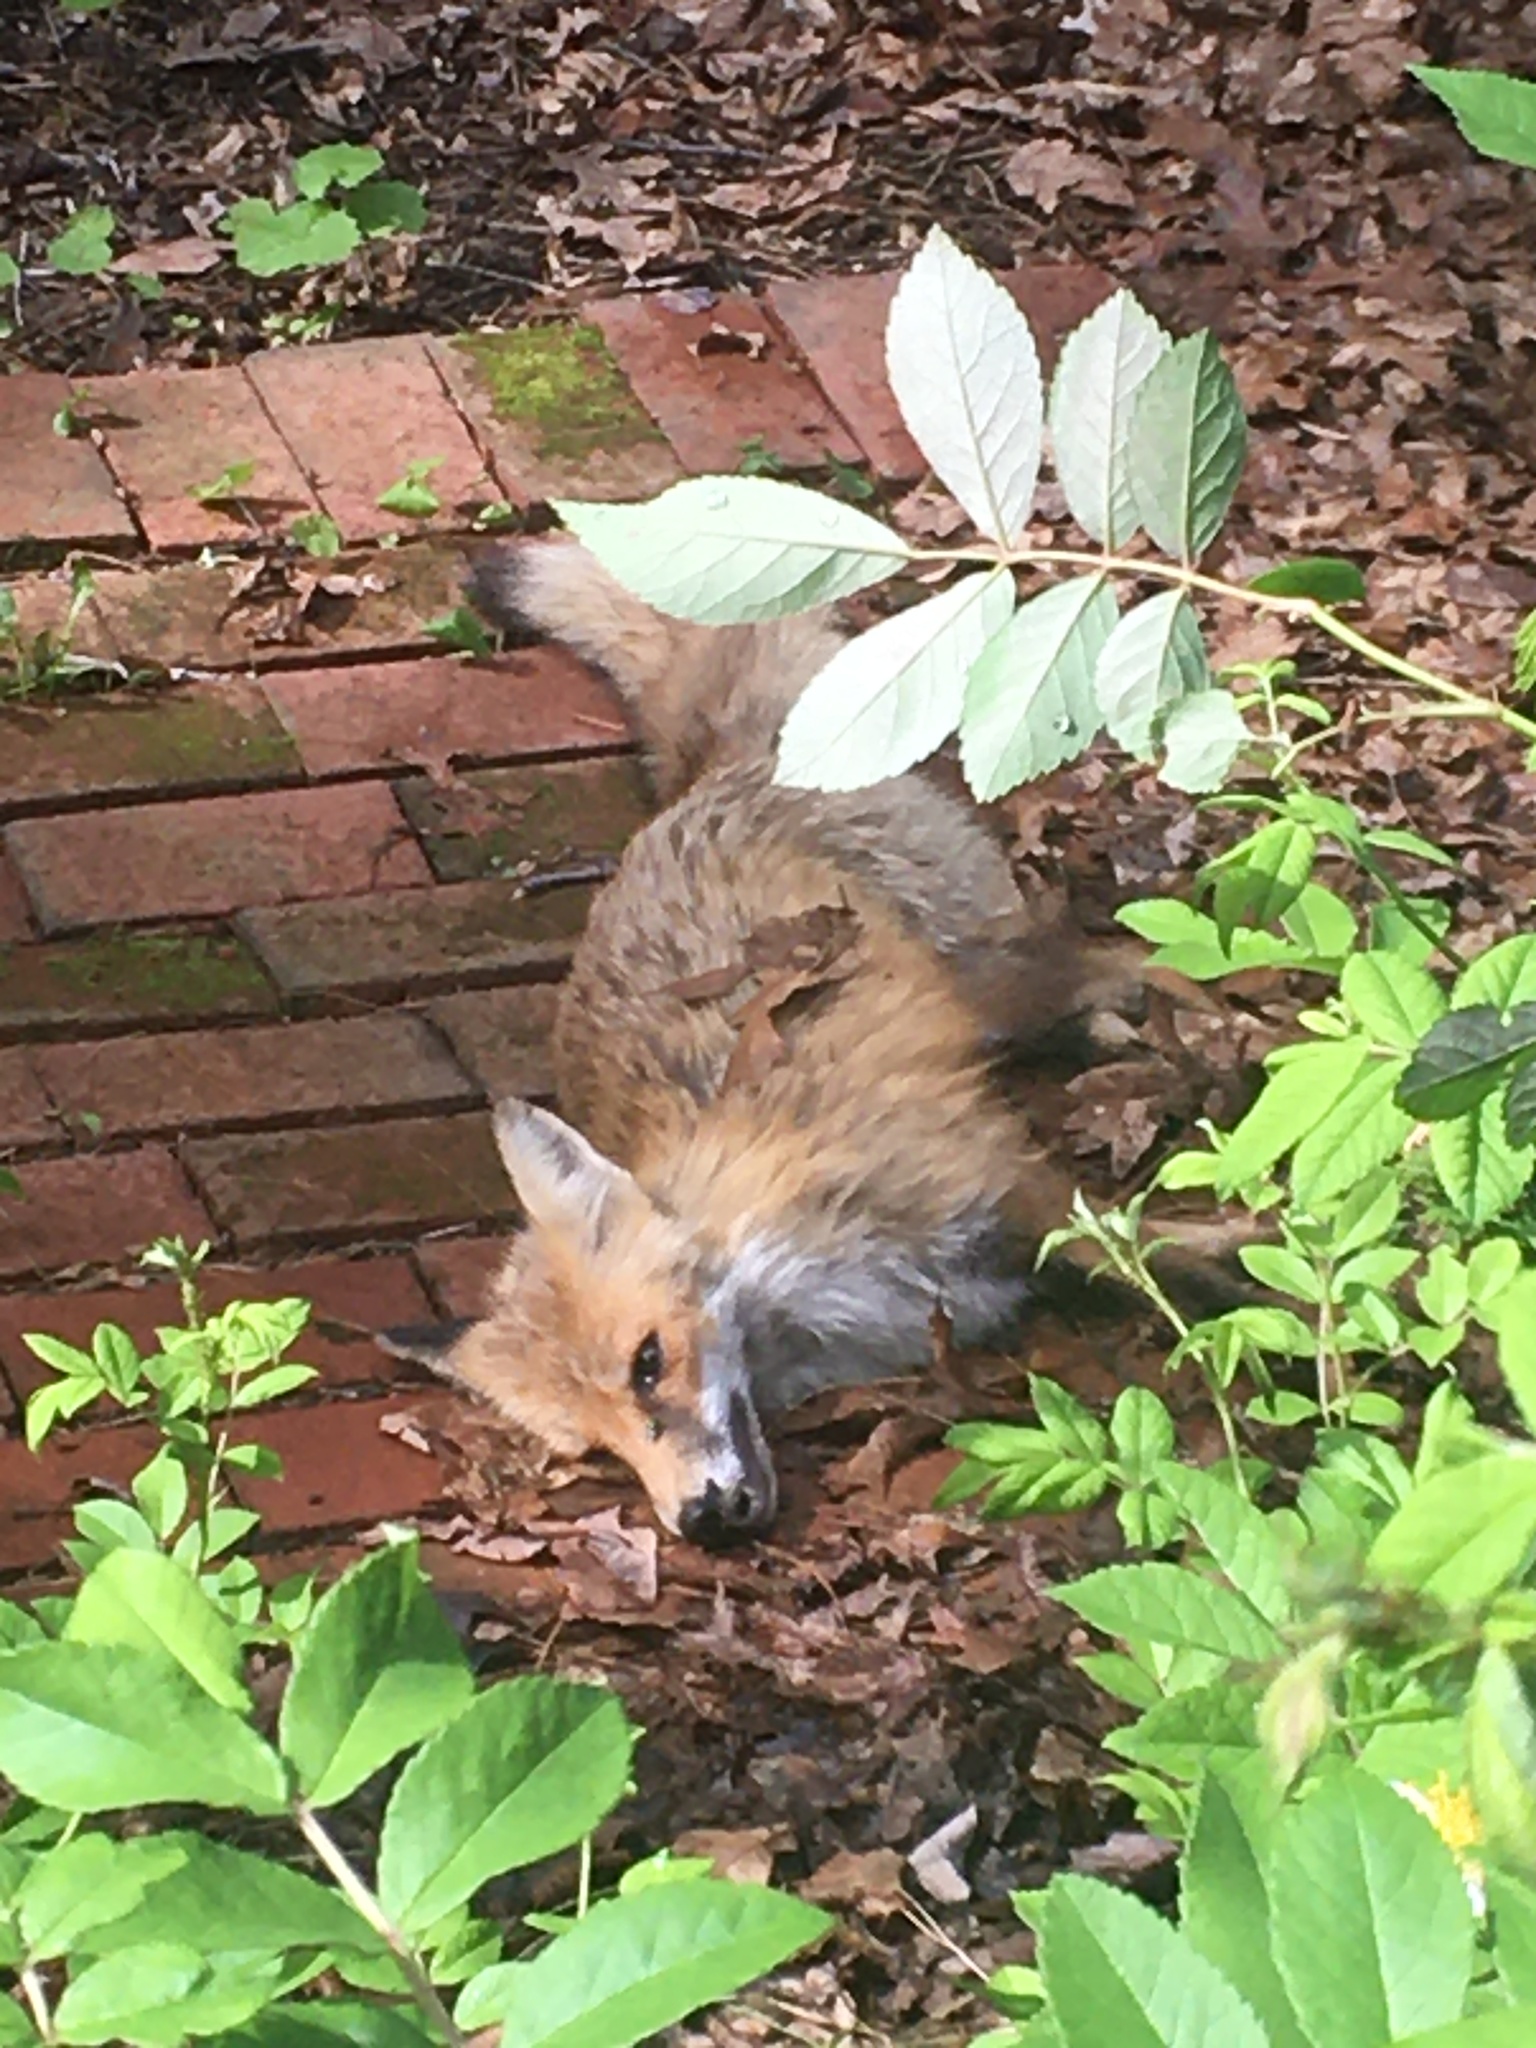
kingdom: Animalia
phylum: Chordata
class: Mammalia
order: Carnivora
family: Canidae
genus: Vulpes
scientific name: Vulpes vulpes
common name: Red fox
